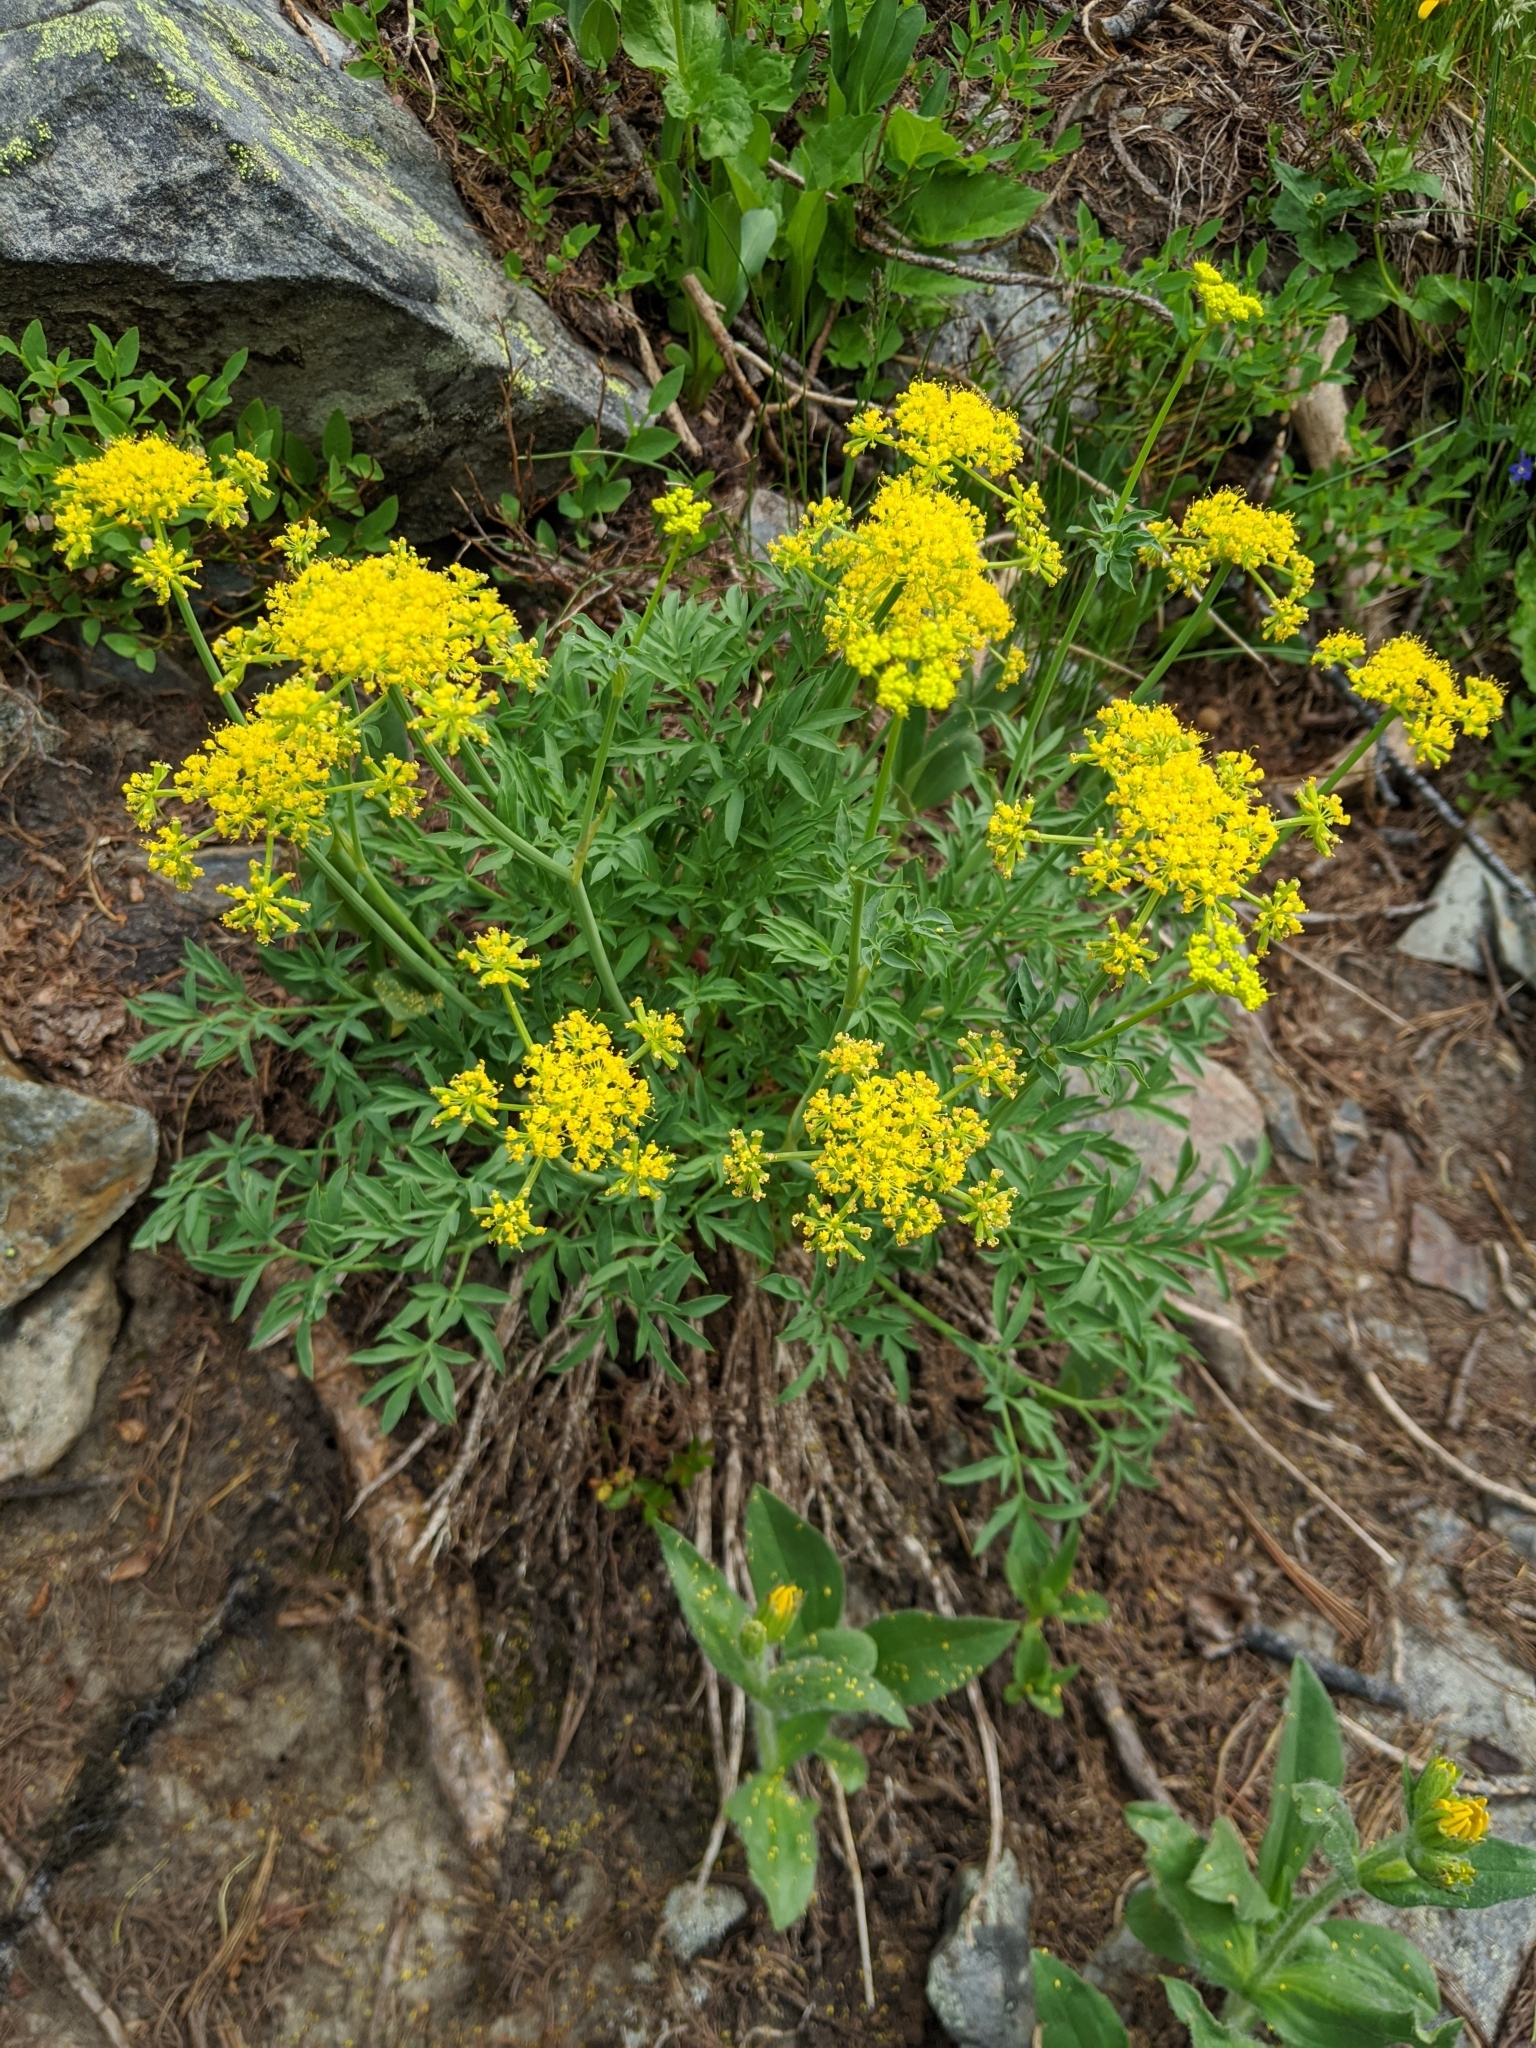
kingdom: Plantae
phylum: Tracheophyta
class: Magnoliopsida
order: Apiales
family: Apiaceae
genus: Lomatium
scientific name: Lomatium brandegeei
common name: Brandegee's desert-parsley
